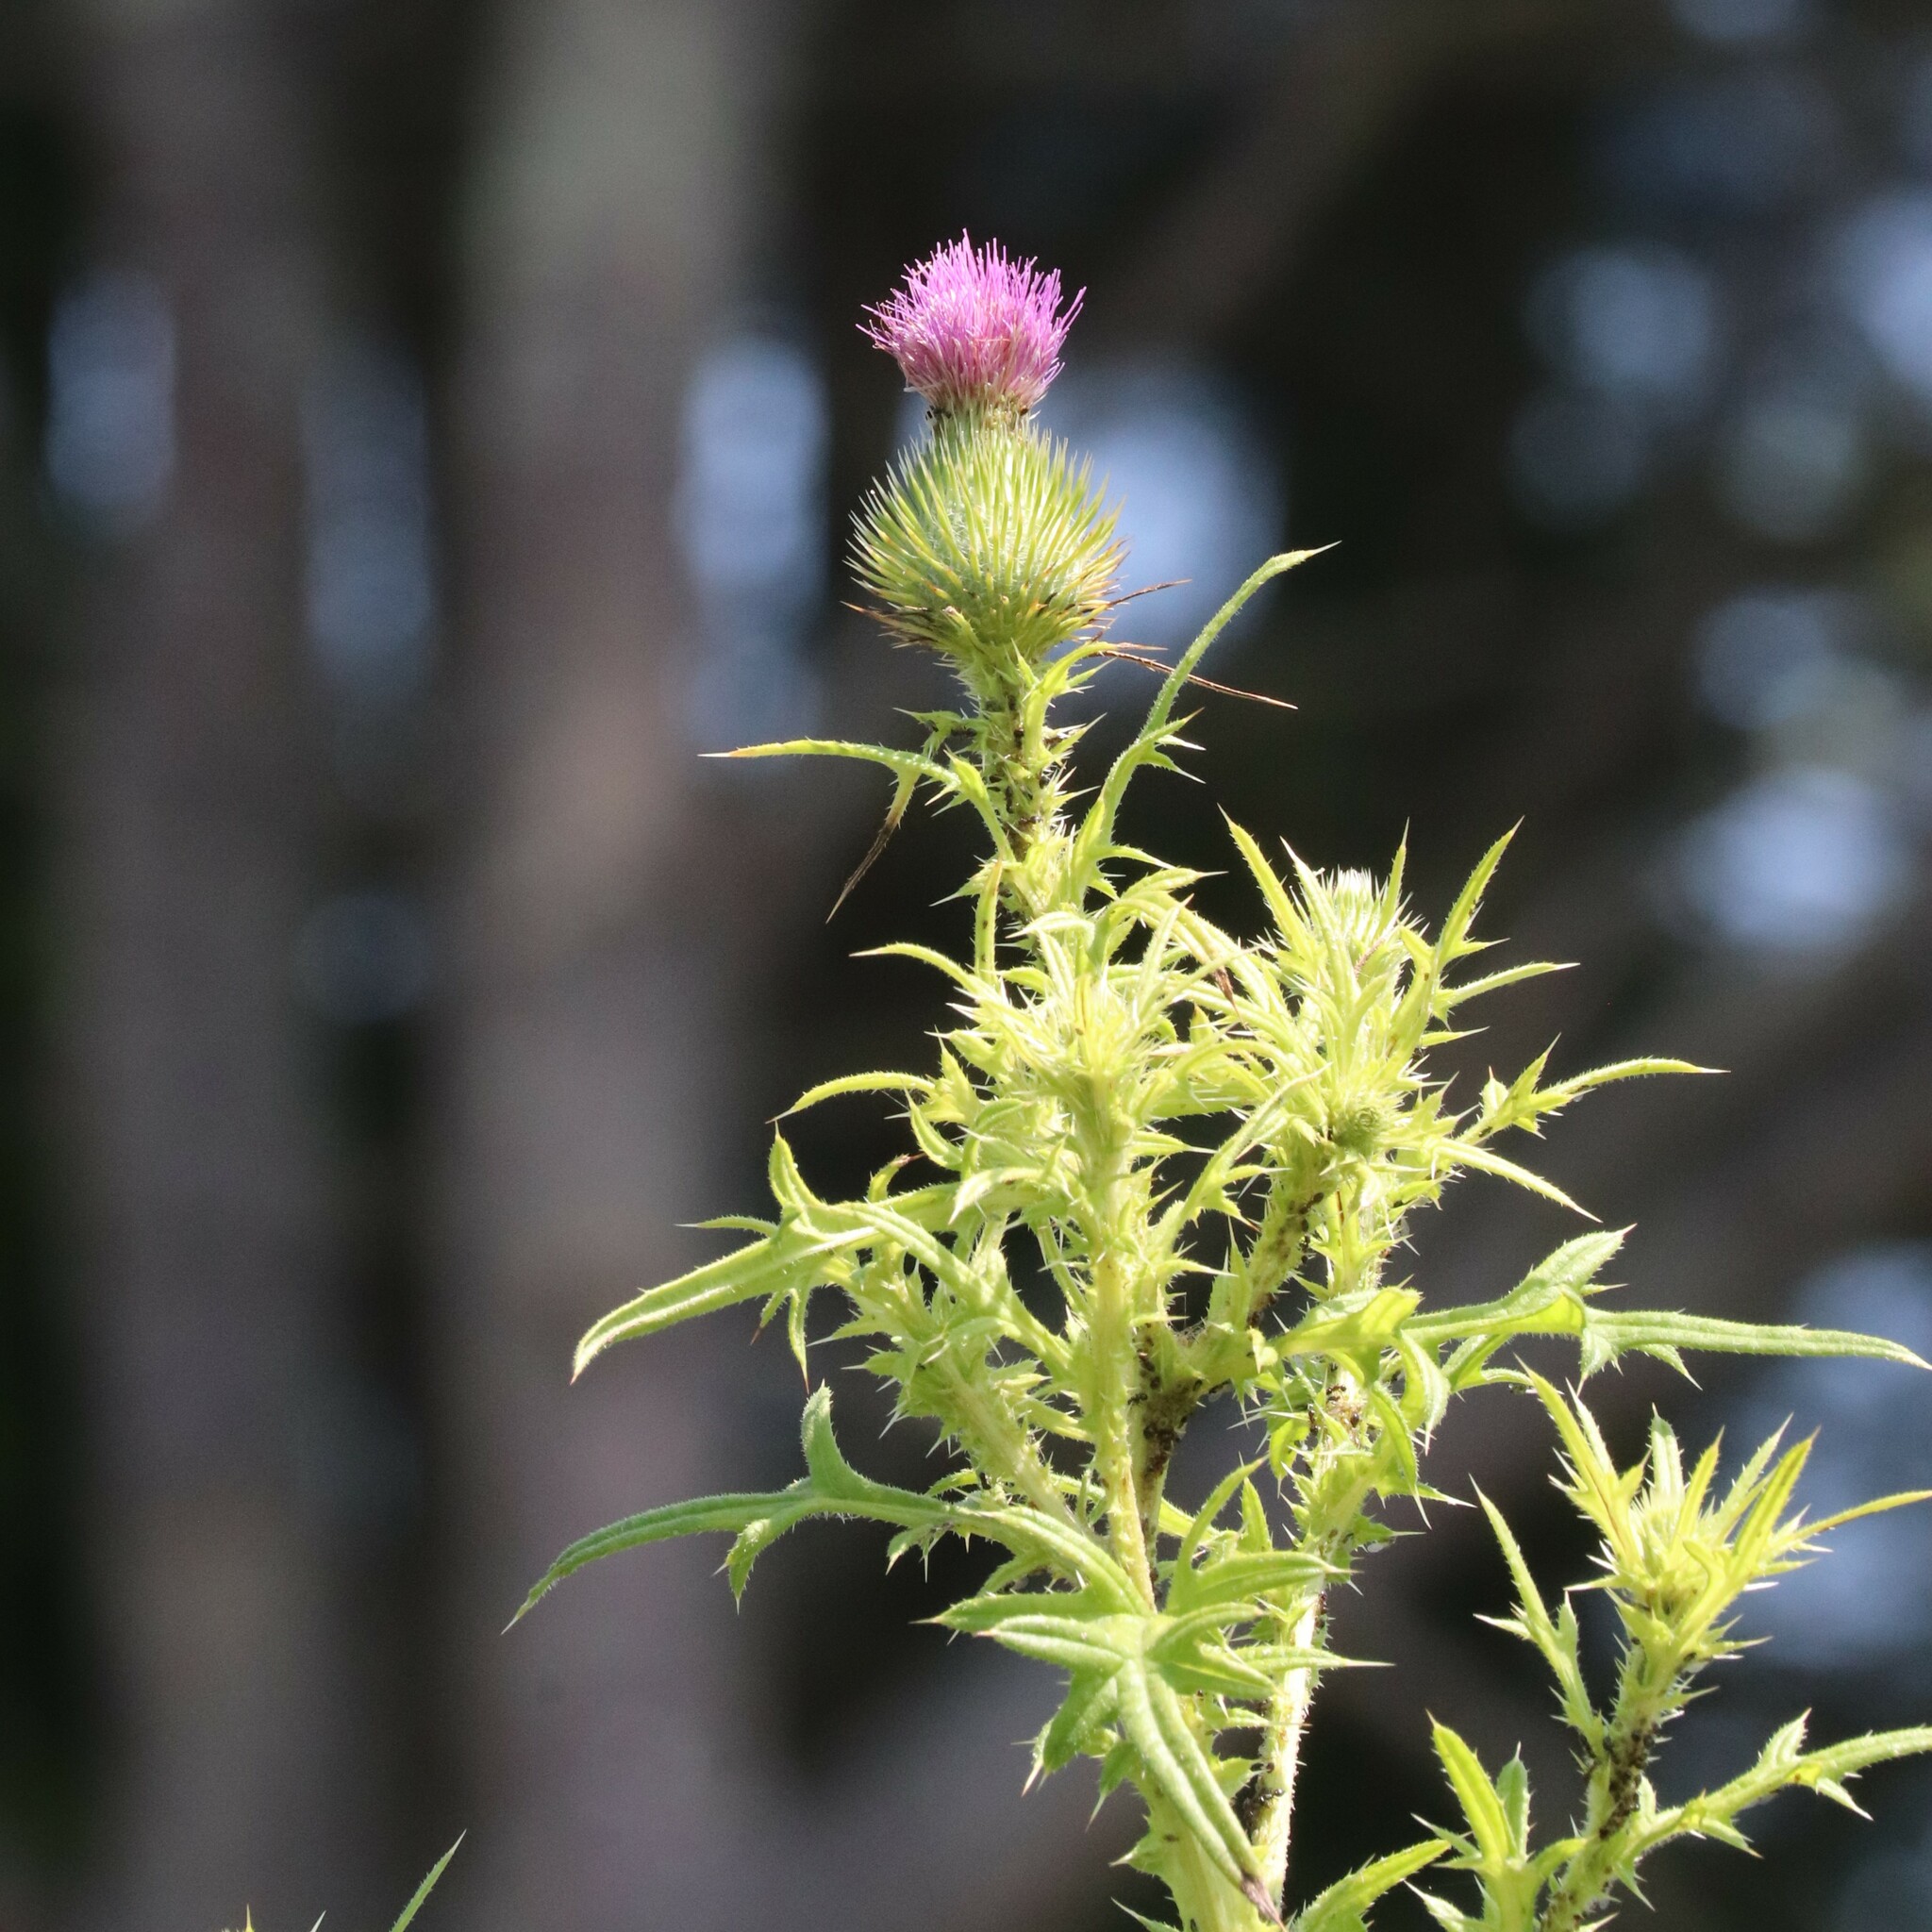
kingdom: Plantae
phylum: Tracheophyta
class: Magnoliopsida
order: Asterales
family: Asteraceae
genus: Cirsium
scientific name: Cirsium vulgare
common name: Bull thistle
